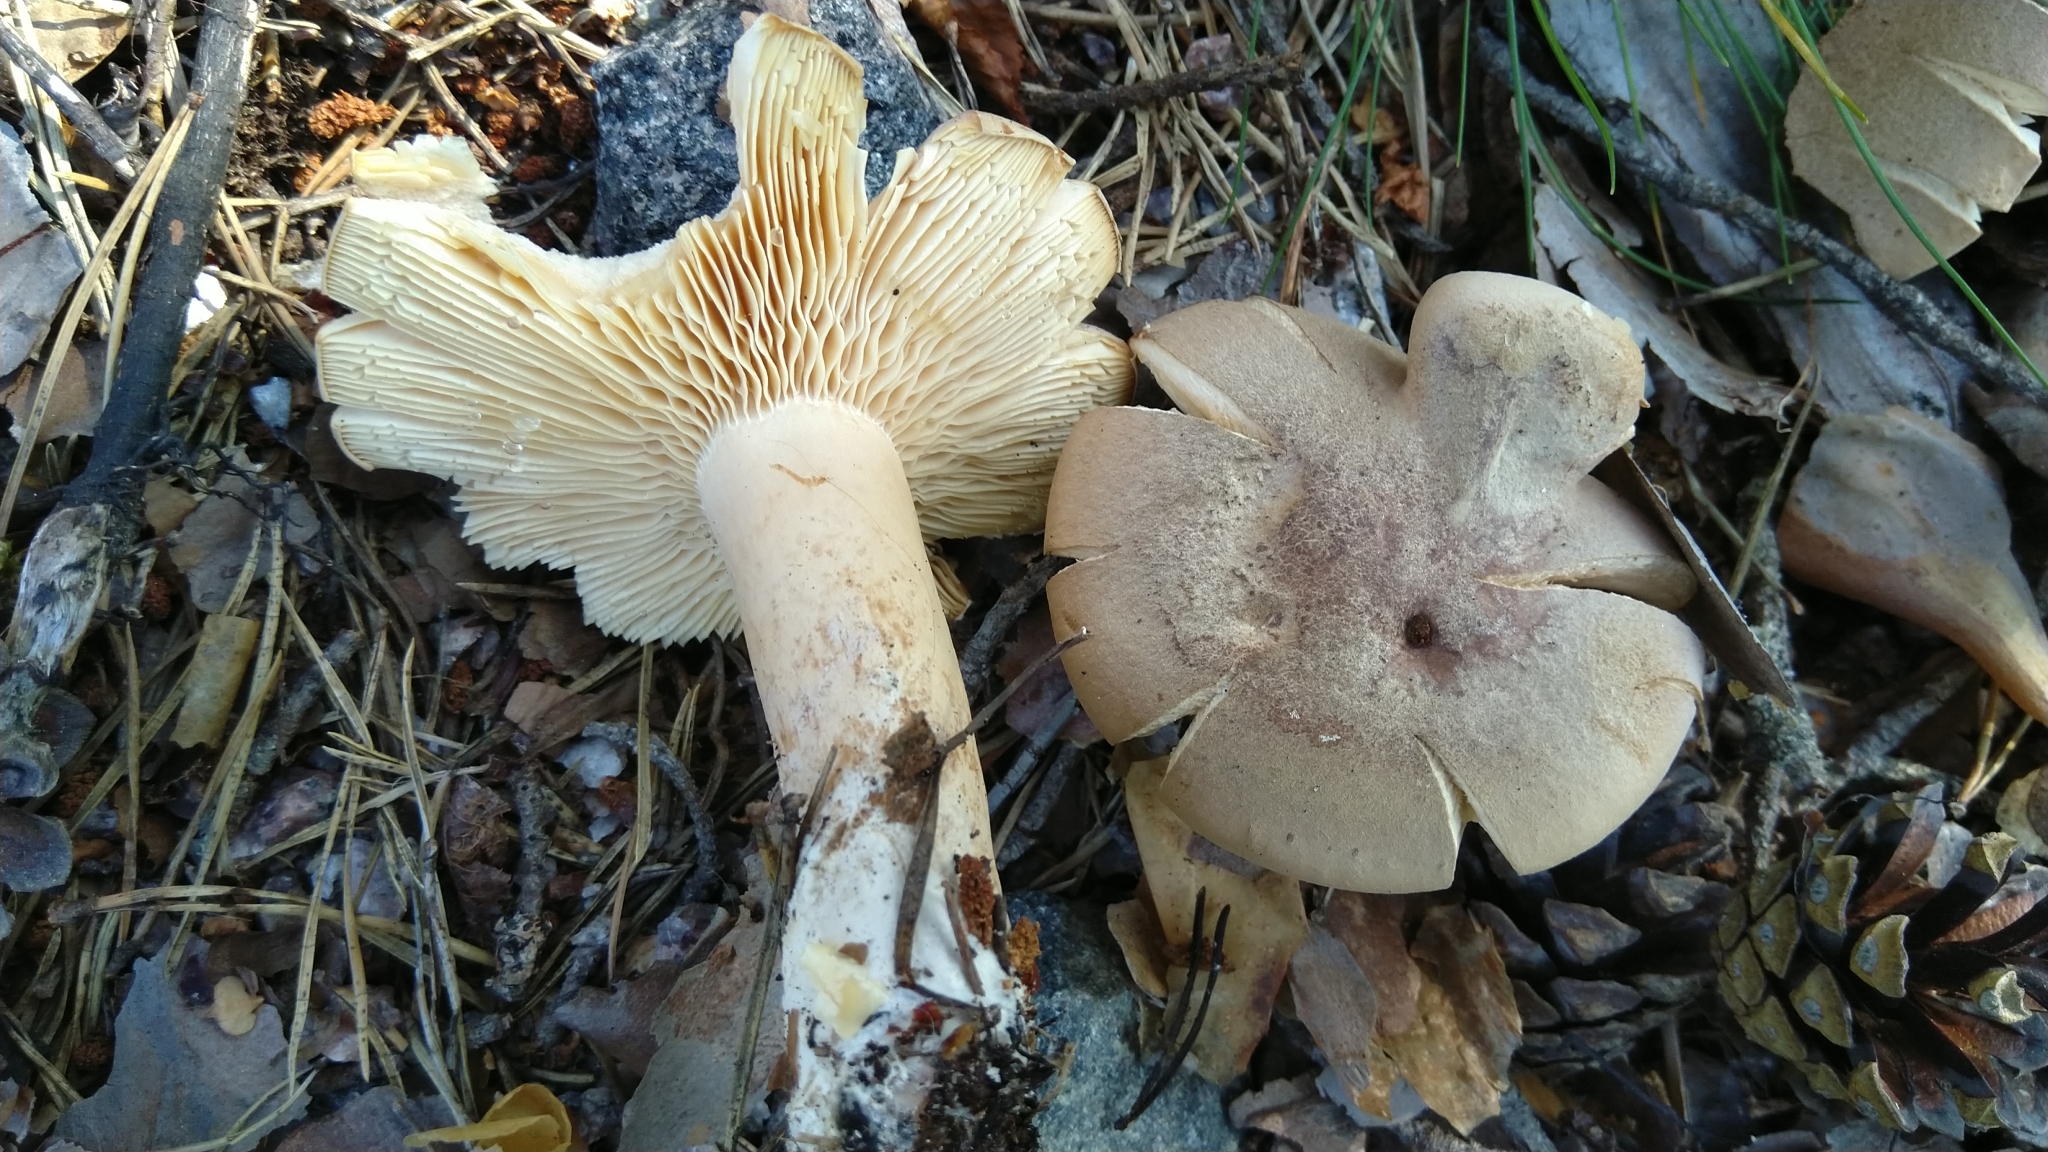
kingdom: Fungi
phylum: Basidiomycota
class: Agaricomycetes
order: Russulales
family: Russulaceae
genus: Lactarius
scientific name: Lactarius helvus
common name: Fenugreek milkcap
